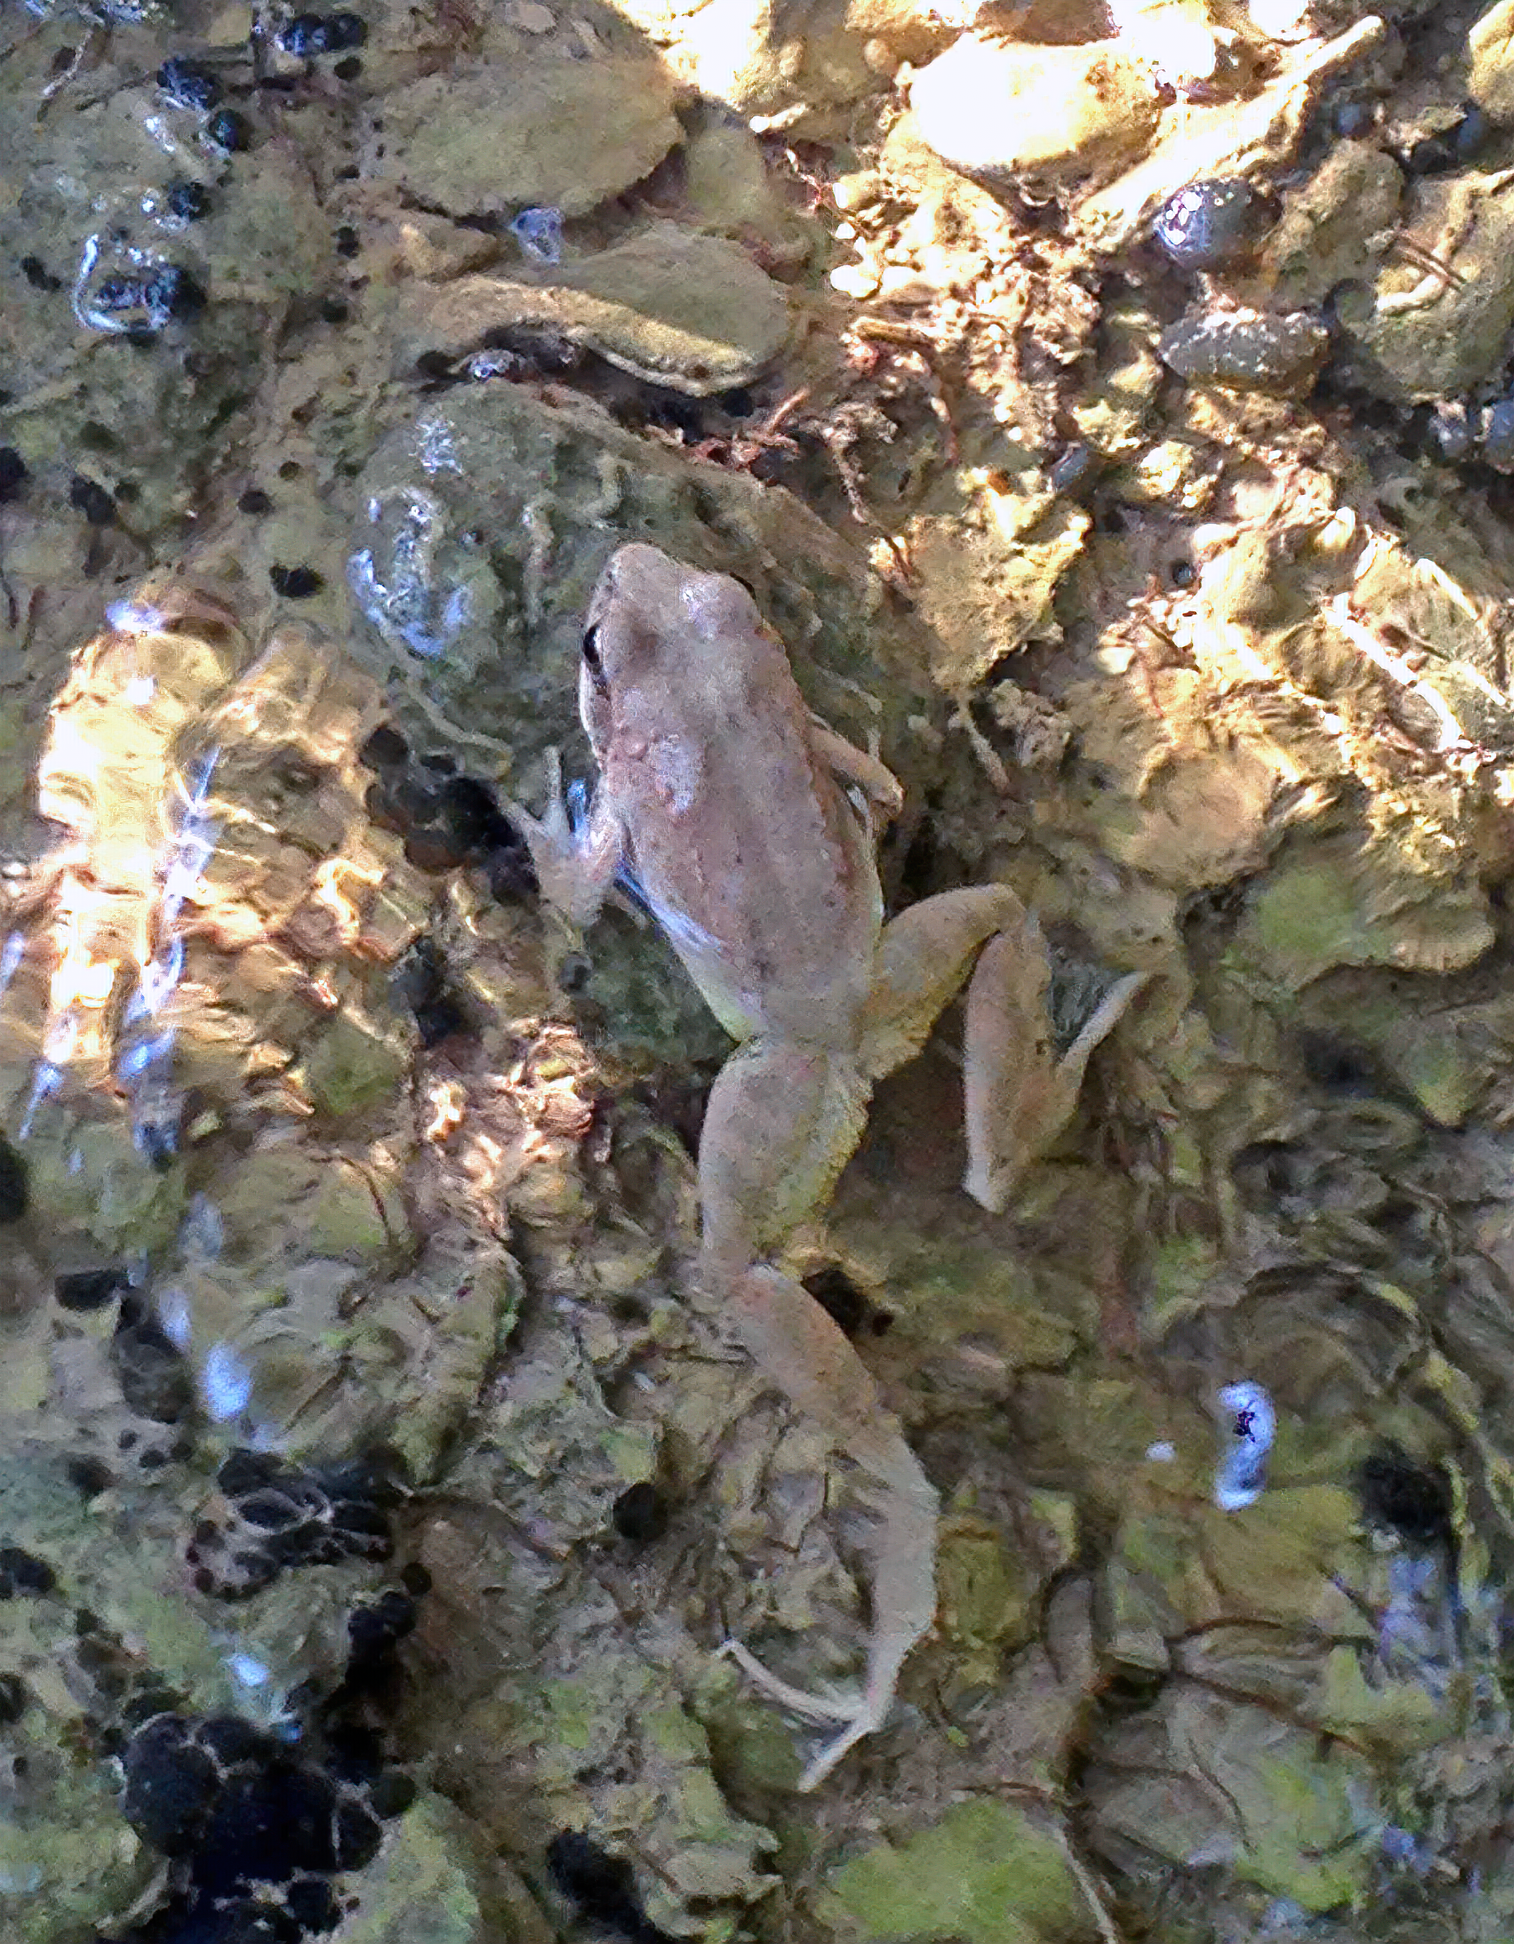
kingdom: Animalia
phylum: Chordata
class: Amphibia
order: Anura
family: Ranidae
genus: Rana
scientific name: Rana graeca
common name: Greek stream frog
